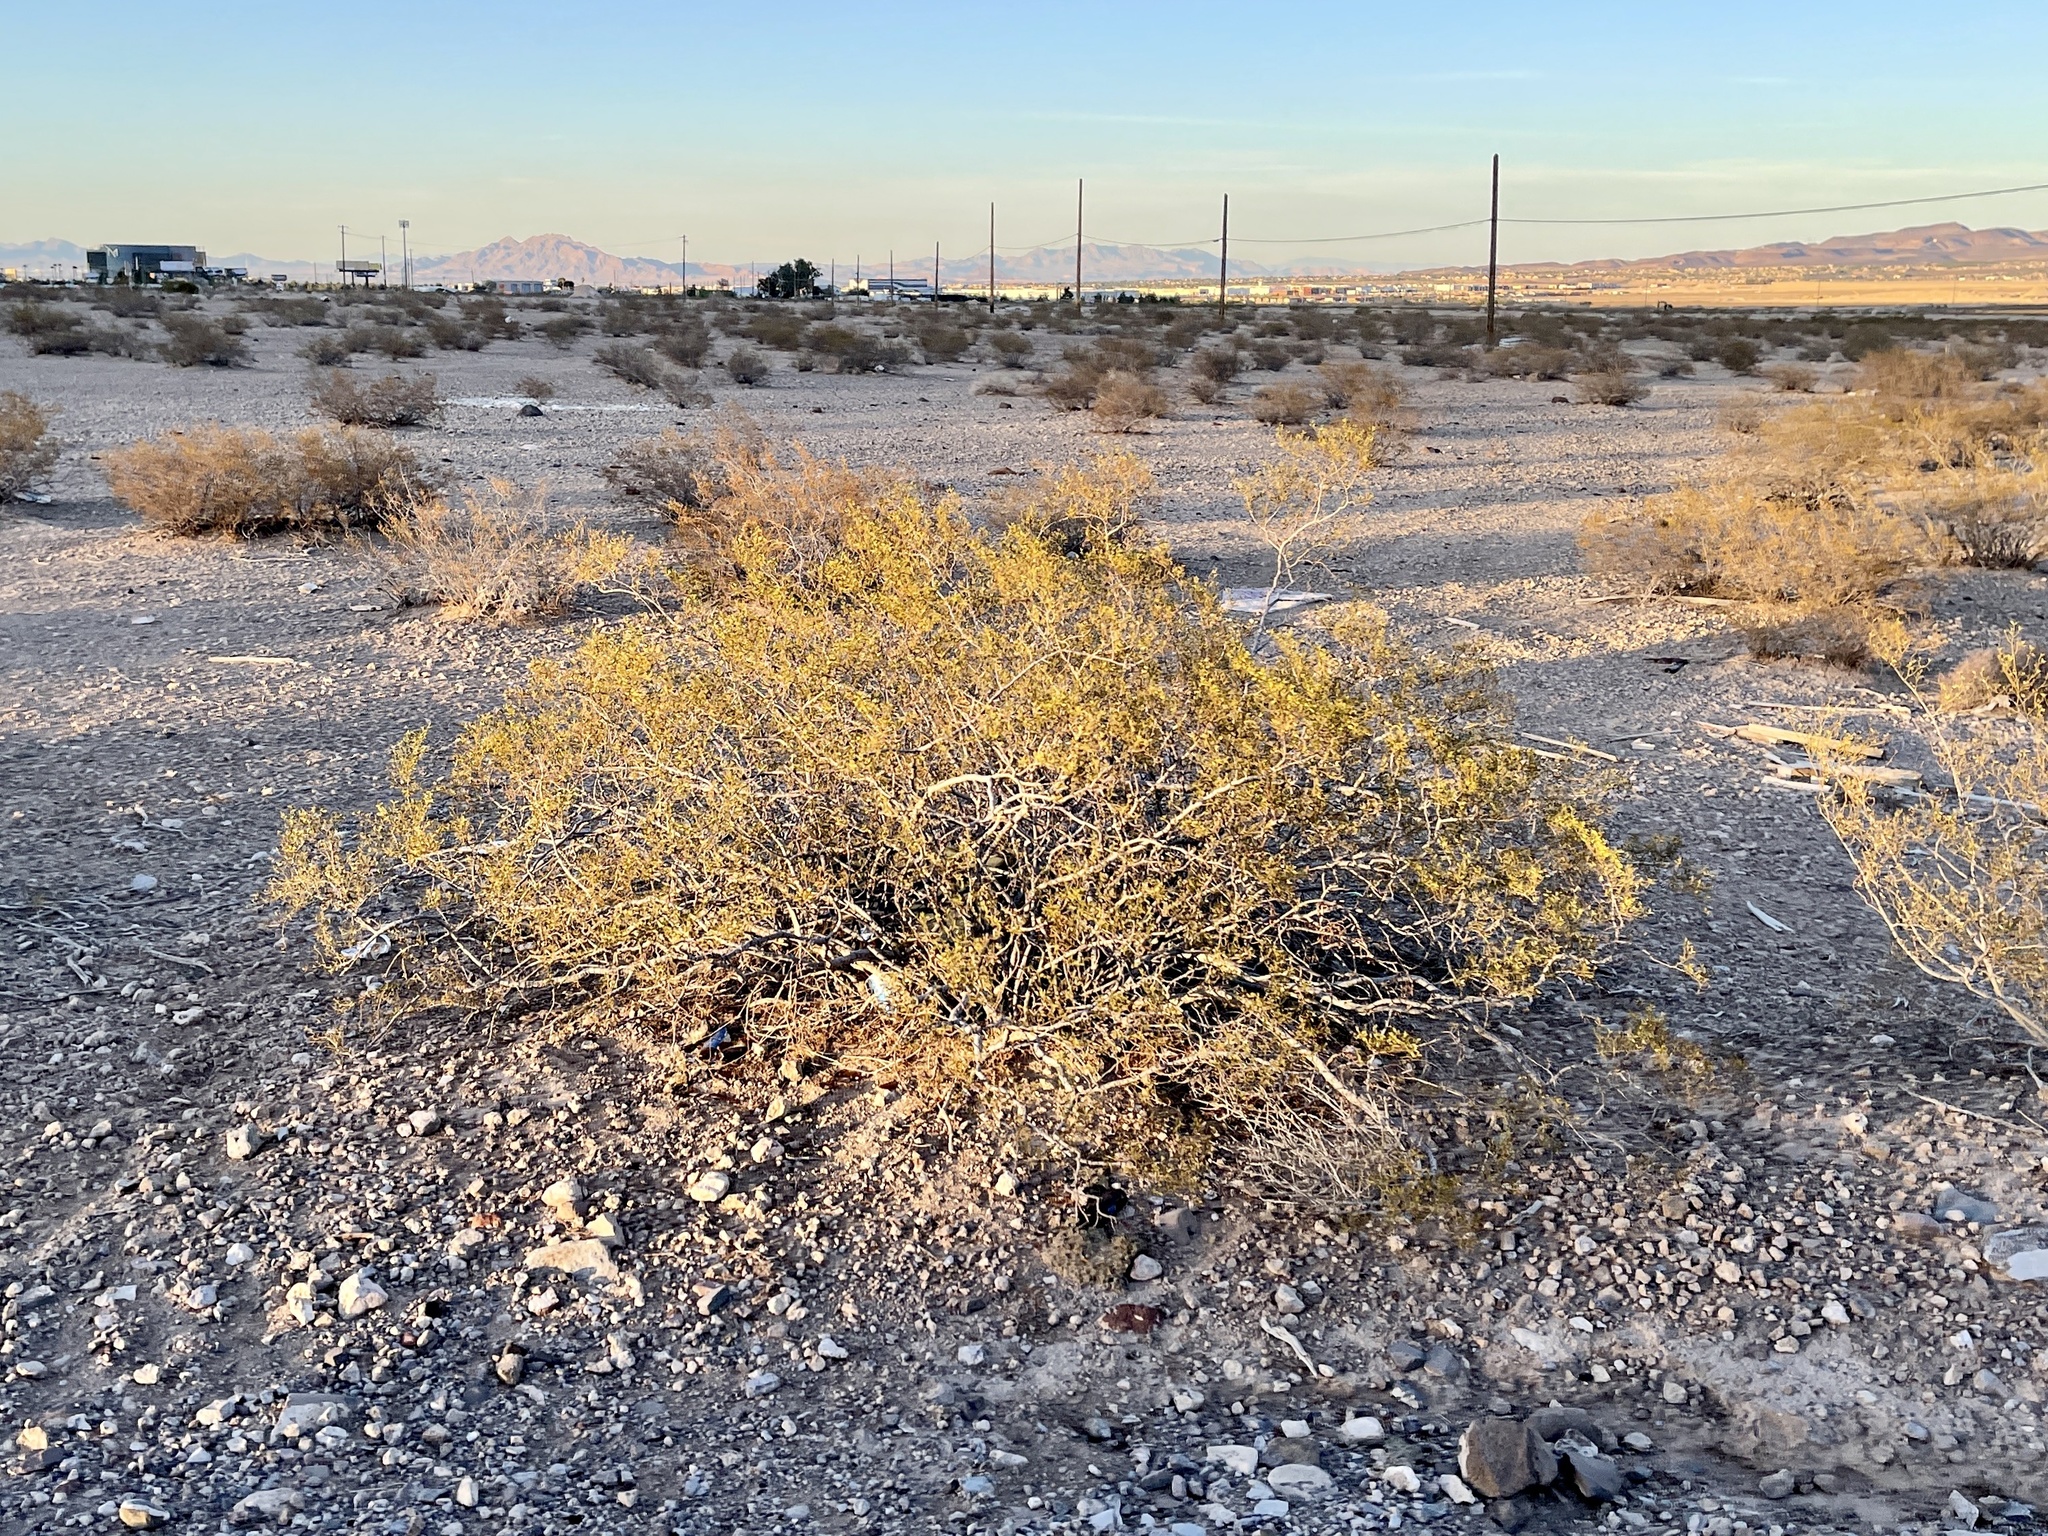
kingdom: Plantae
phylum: Tracheophyta
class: Magnoliopsida
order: Zygophyllales
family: Zygophyllaceae
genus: Larrea
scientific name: Larrea tridentata
